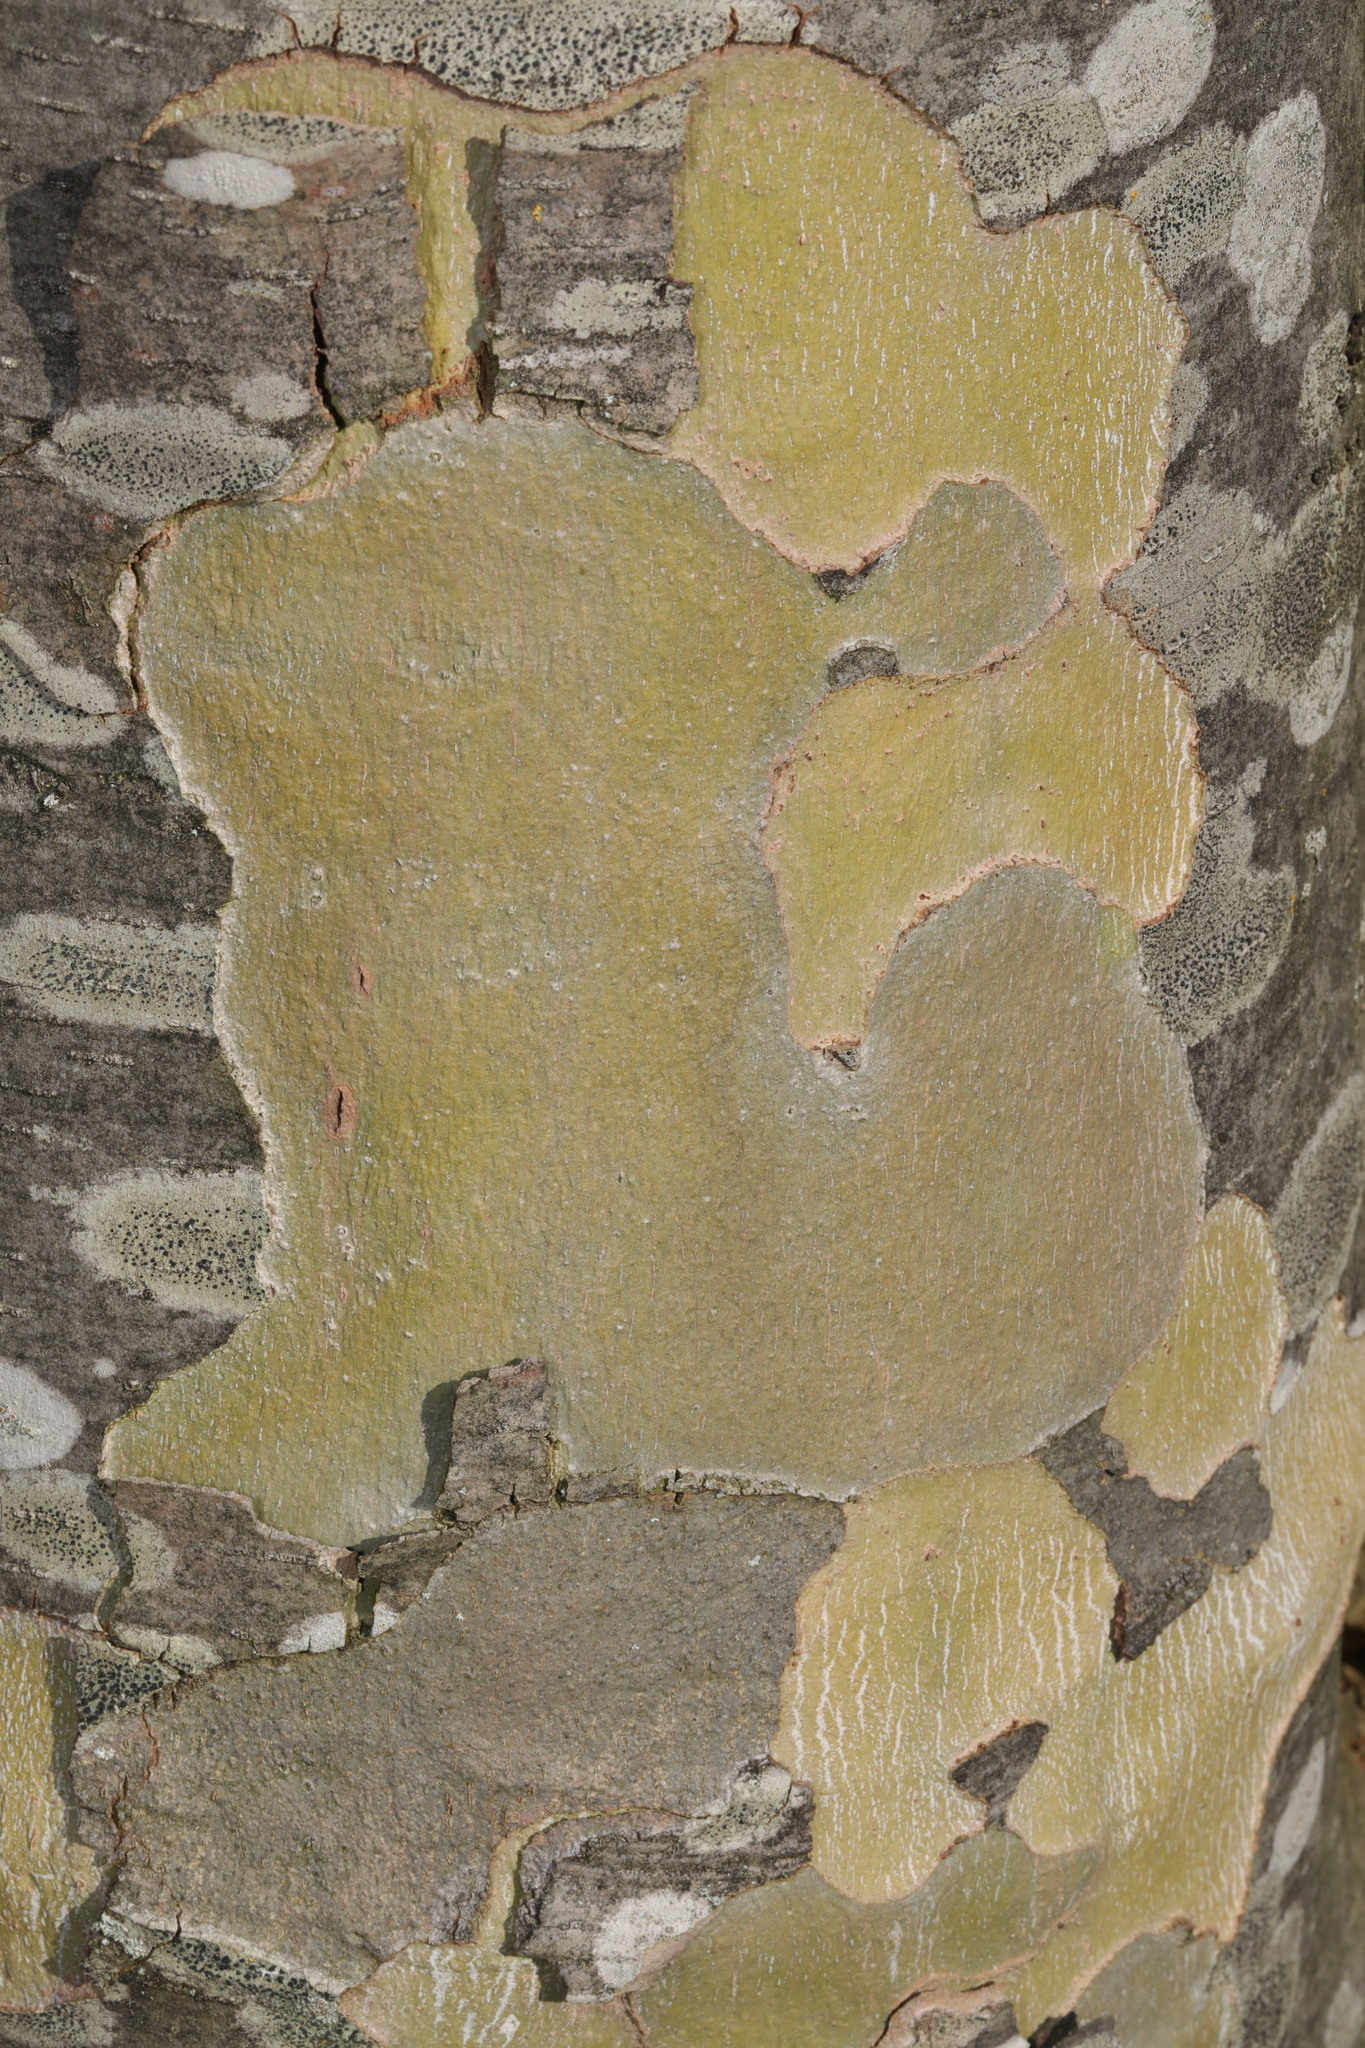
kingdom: Plantae
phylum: Tracheophyta
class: Magnoliopsida
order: Proteales
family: Platanaceae
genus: Platanus
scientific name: Platanus hispanica
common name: London plane
